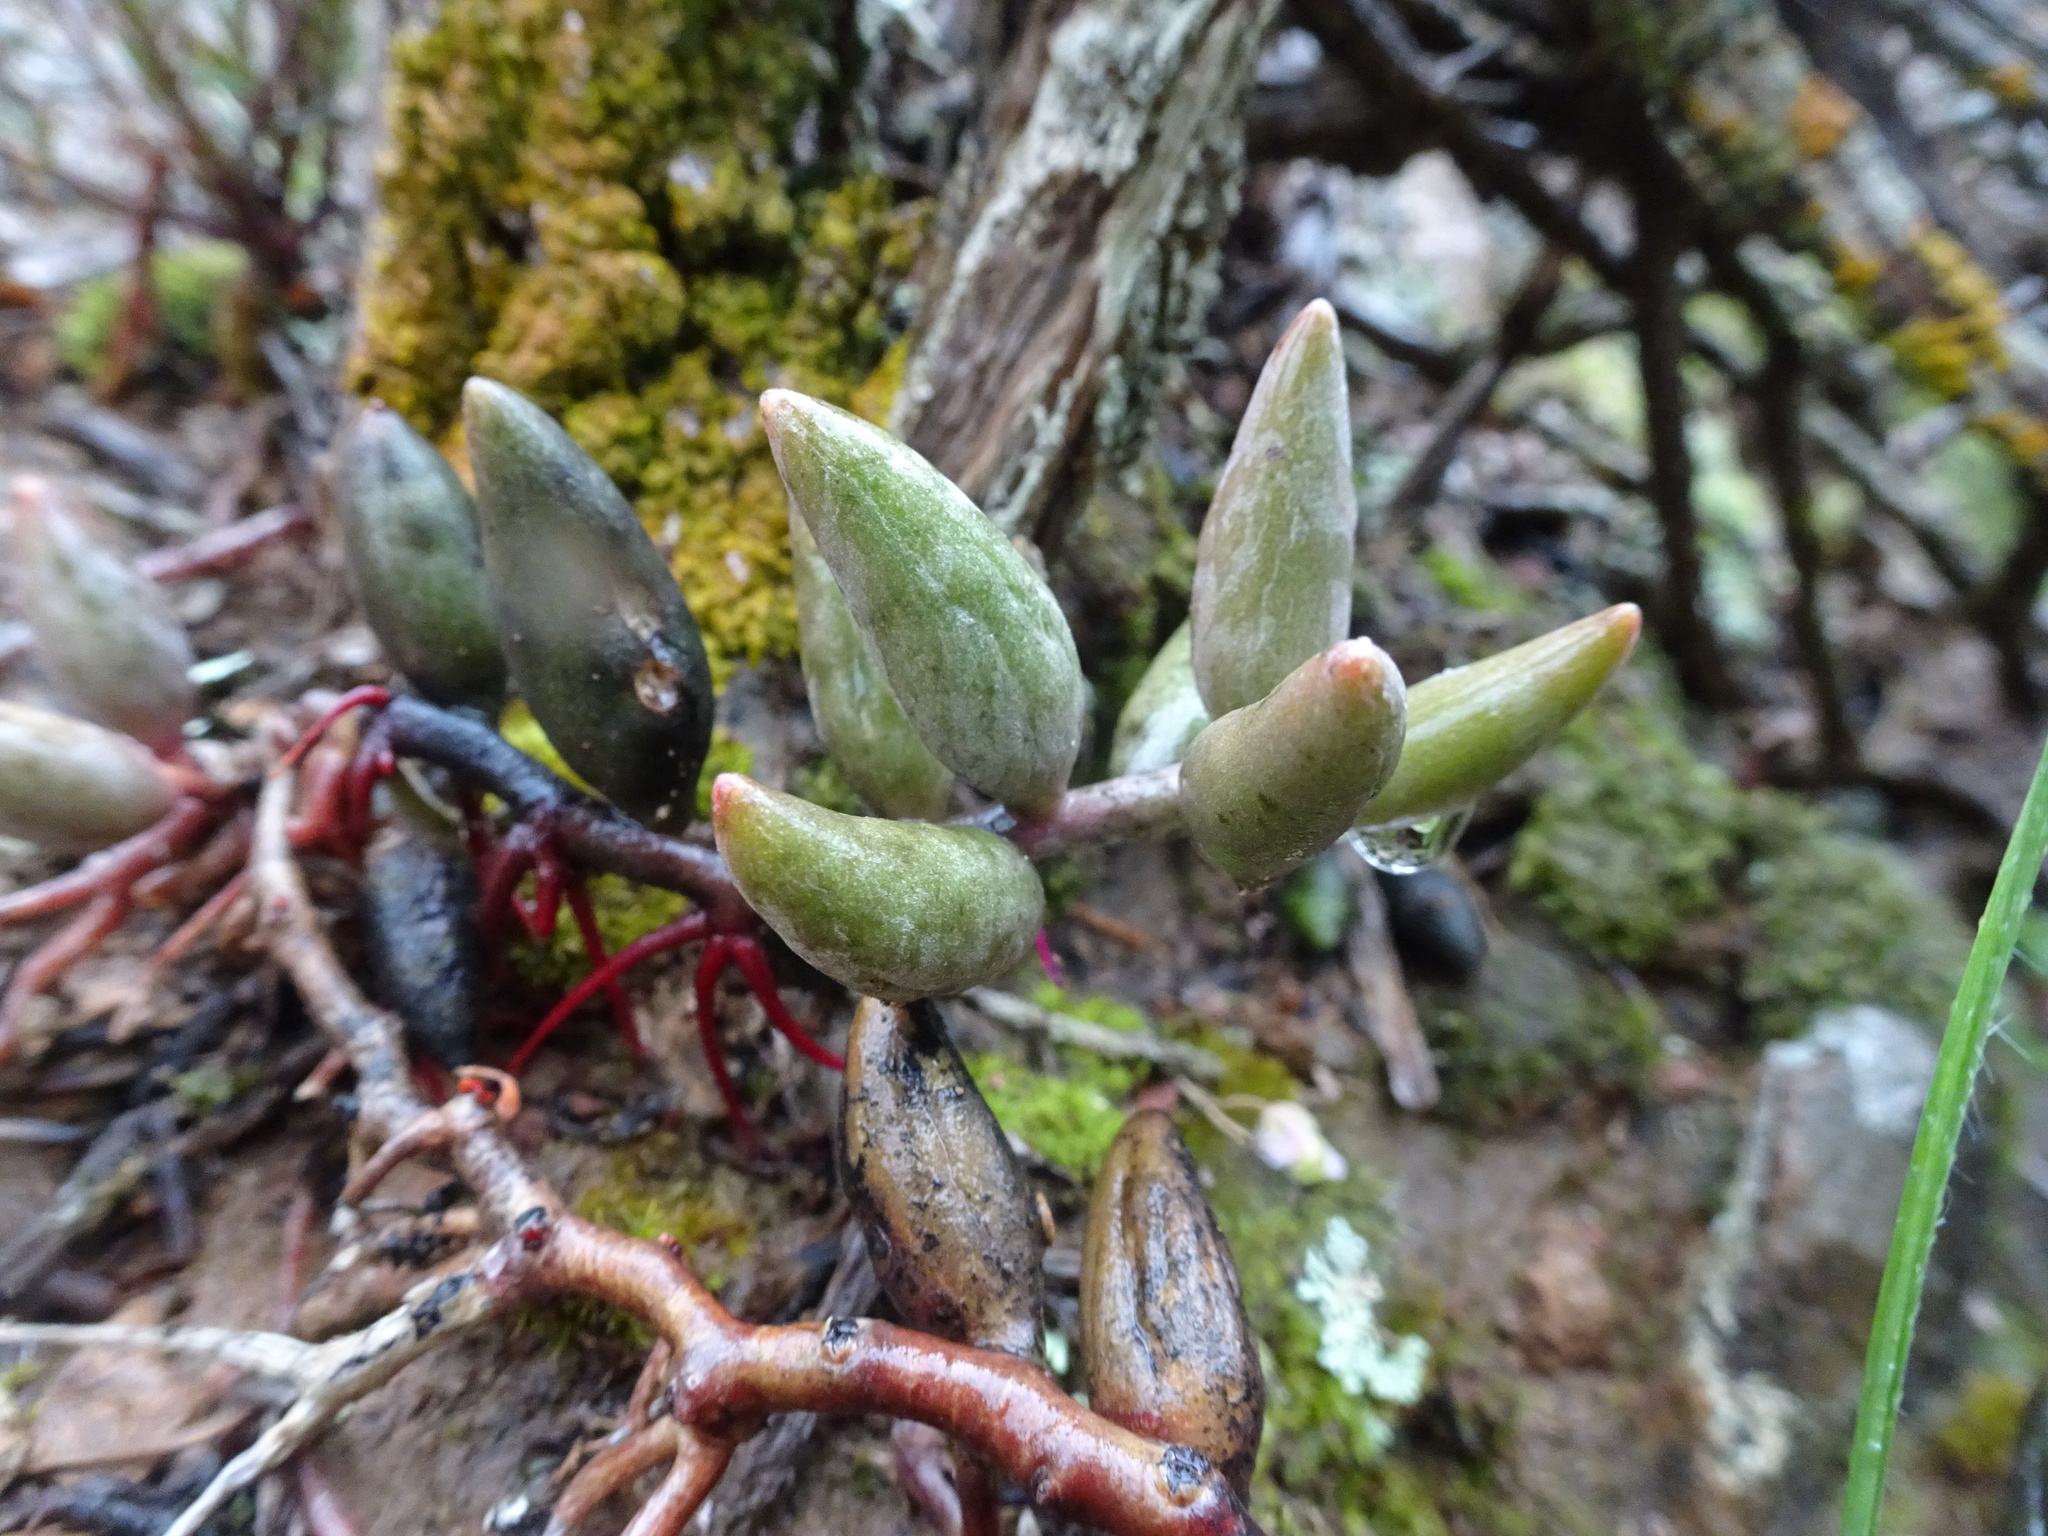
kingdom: Plantae
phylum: Tracheophyta
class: Magnoliopsida
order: Saxifragales
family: Crassulaceae
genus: Adromischus
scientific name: Adromischus filicaulis
